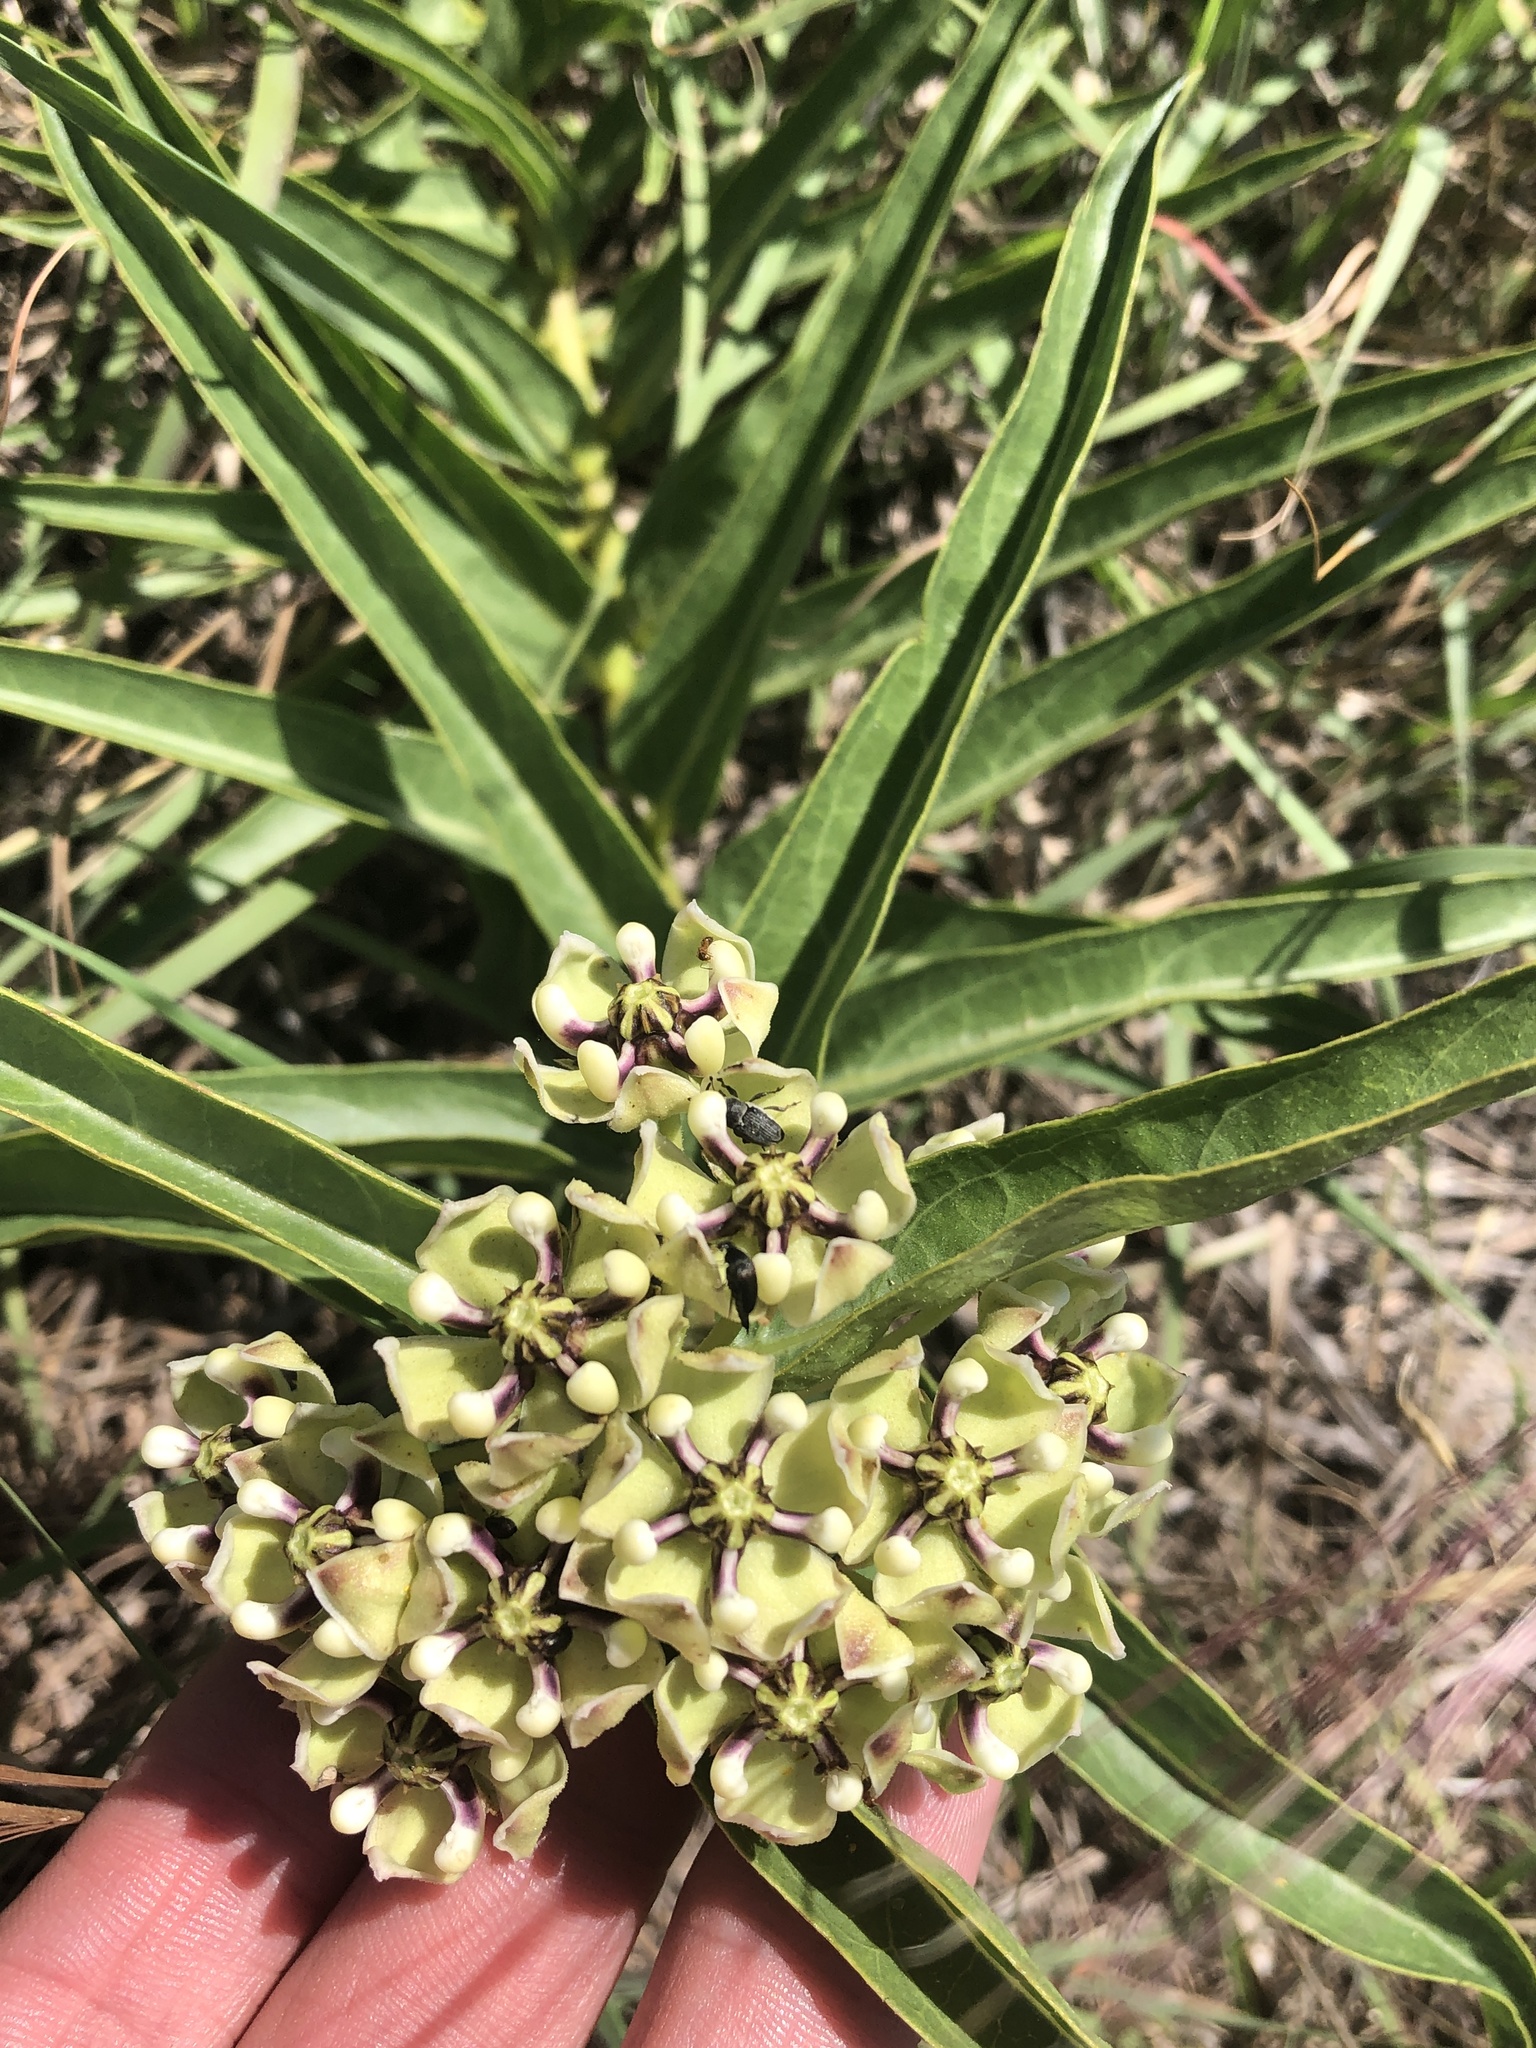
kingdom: Plantae
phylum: Tracheophyta
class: Magnoliopsida
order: Gentianales
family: Apocynaceae
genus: Asclepias
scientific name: Asclepias asperula
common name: Antelope horns
